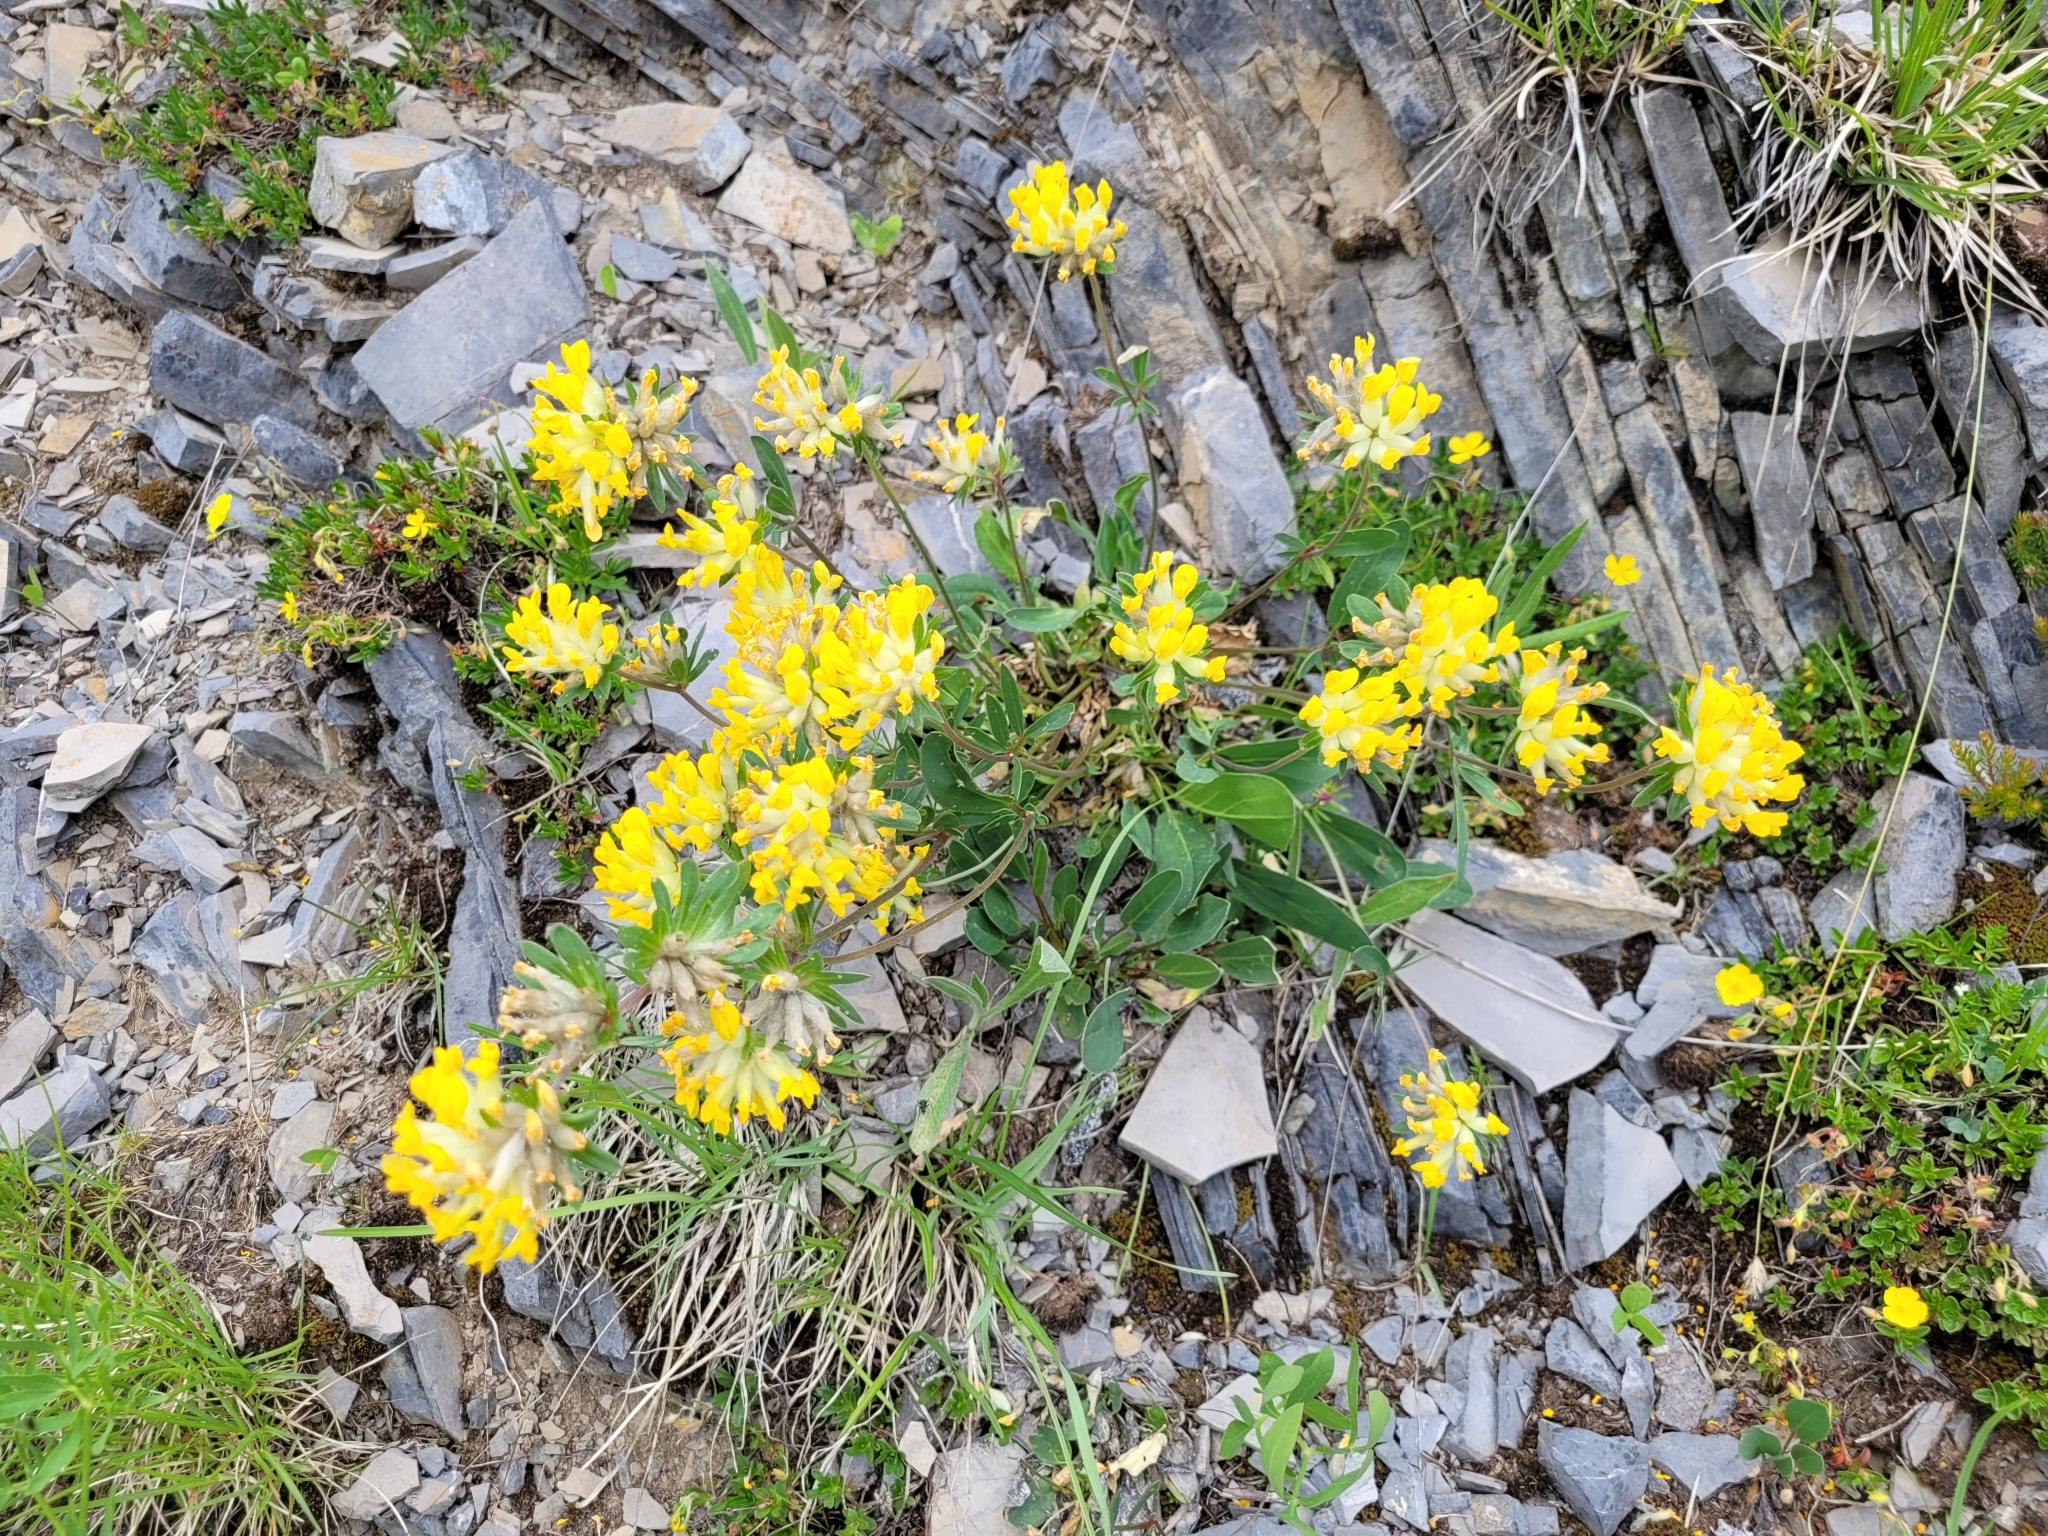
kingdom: Plantae
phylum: Tracheophyta
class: Magnoliopsida
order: Fabales
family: Fabaceae
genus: Anthyllis
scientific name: Anthyllis vulneraria
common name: Kidney vetch
